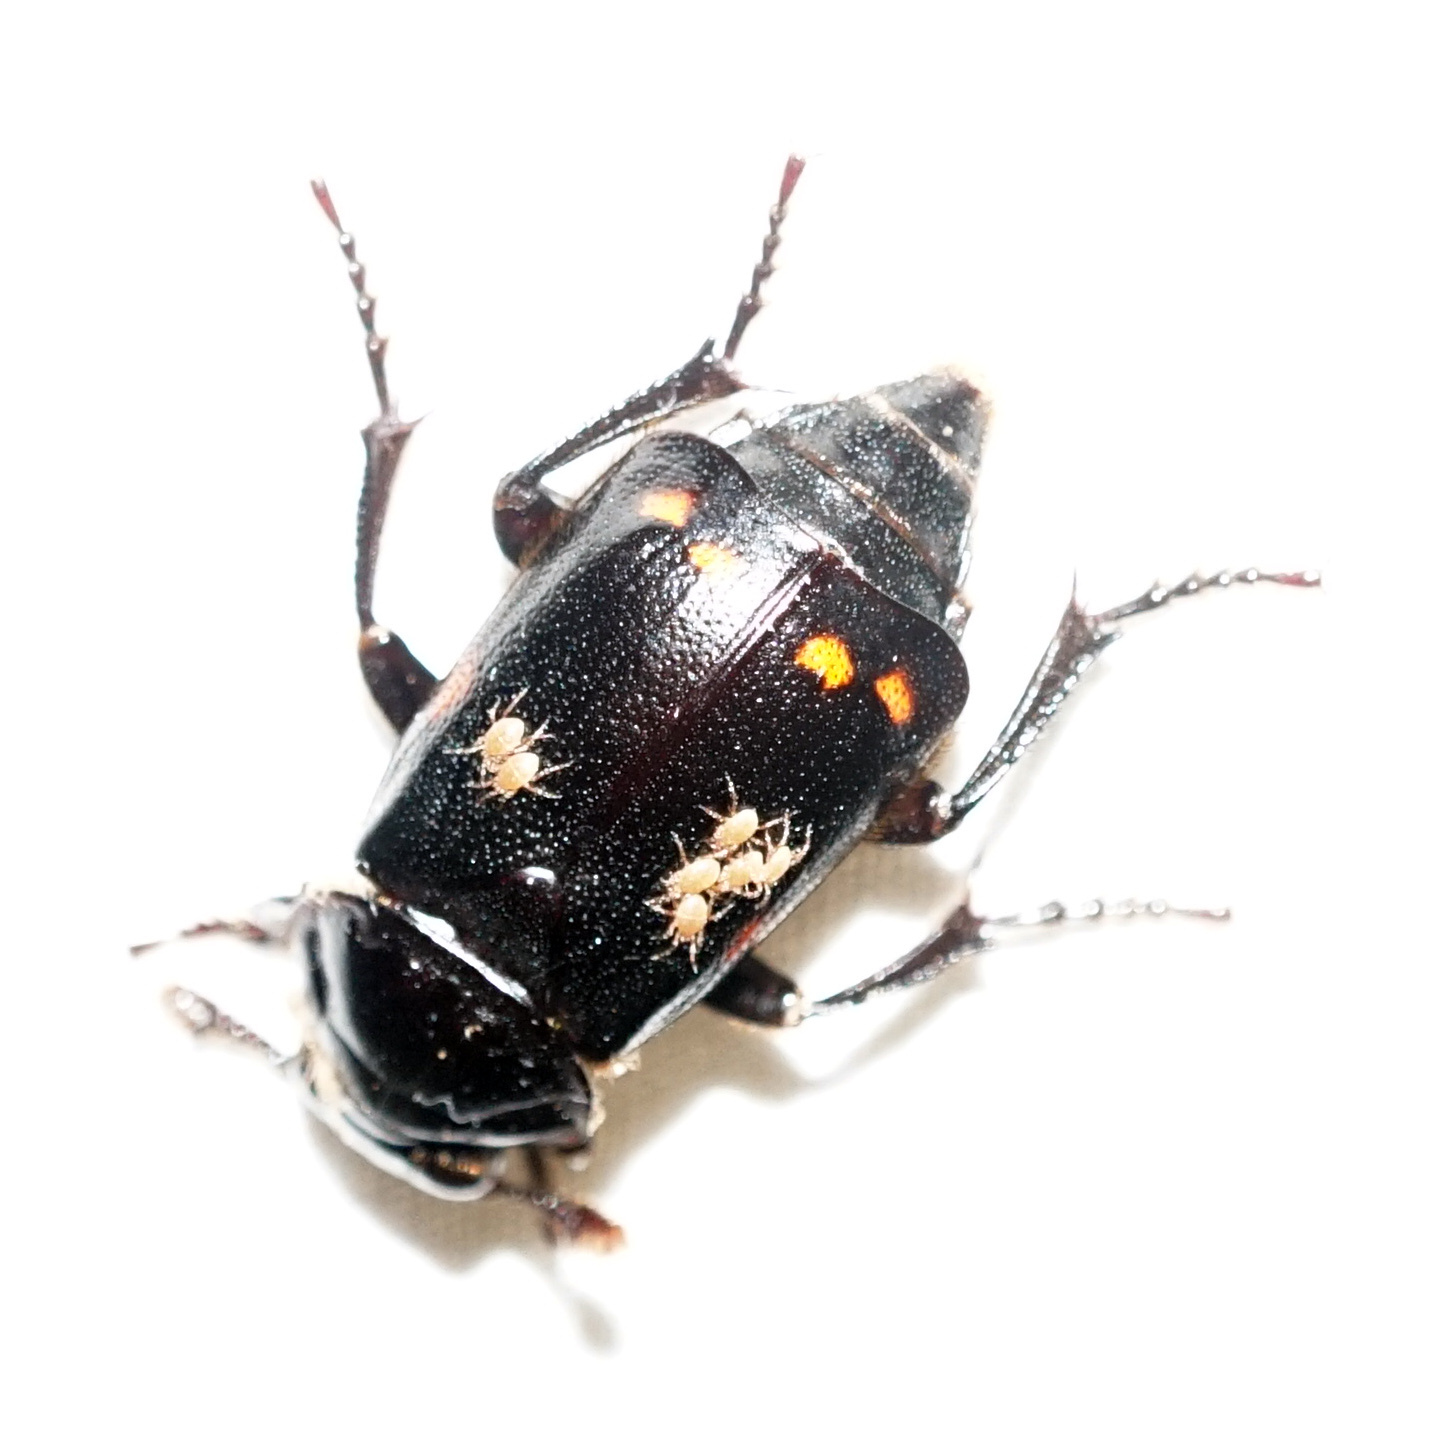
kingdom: Animalia
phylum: Arthropoda
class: Arachnida
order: Mesostigmata
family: Parasitidae
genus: Poecilochirus
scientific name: Poecilochirus
